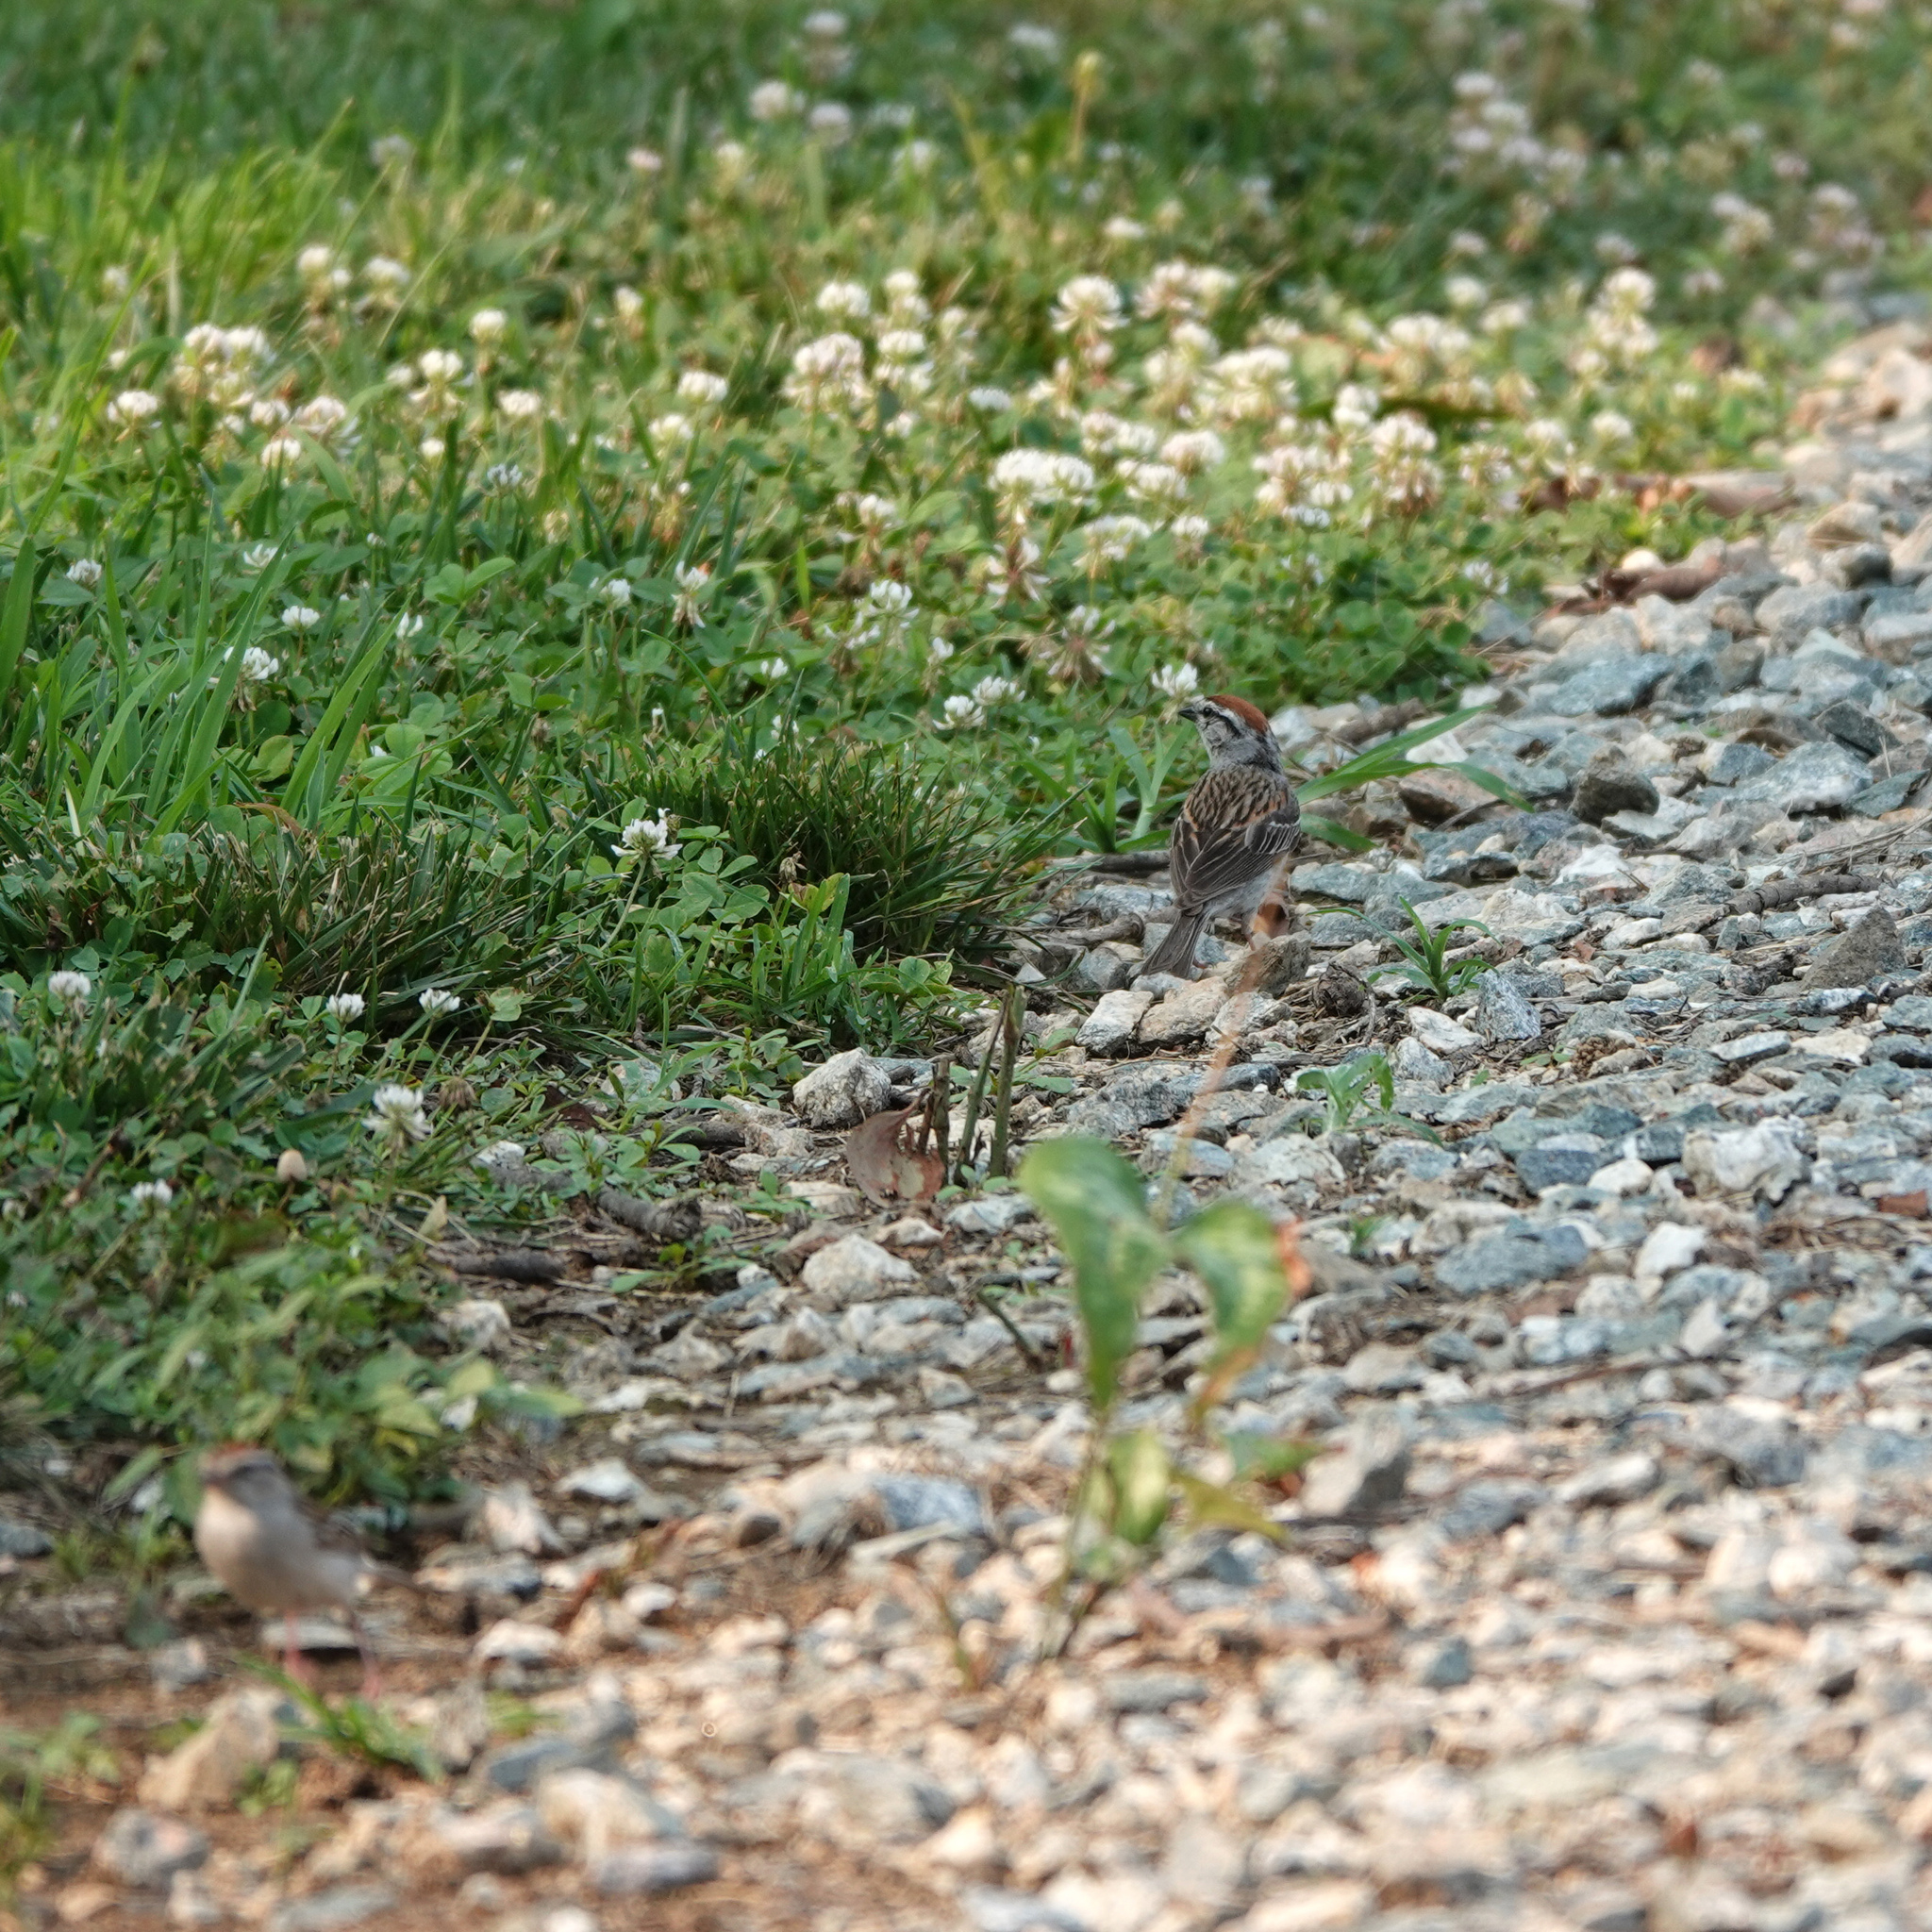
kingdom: Animalia
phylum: Chordata
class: Aves
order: Passeriformes
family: Passerellidae
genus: Spizella
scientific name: Spizella passerina
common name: Chipping sparrow
